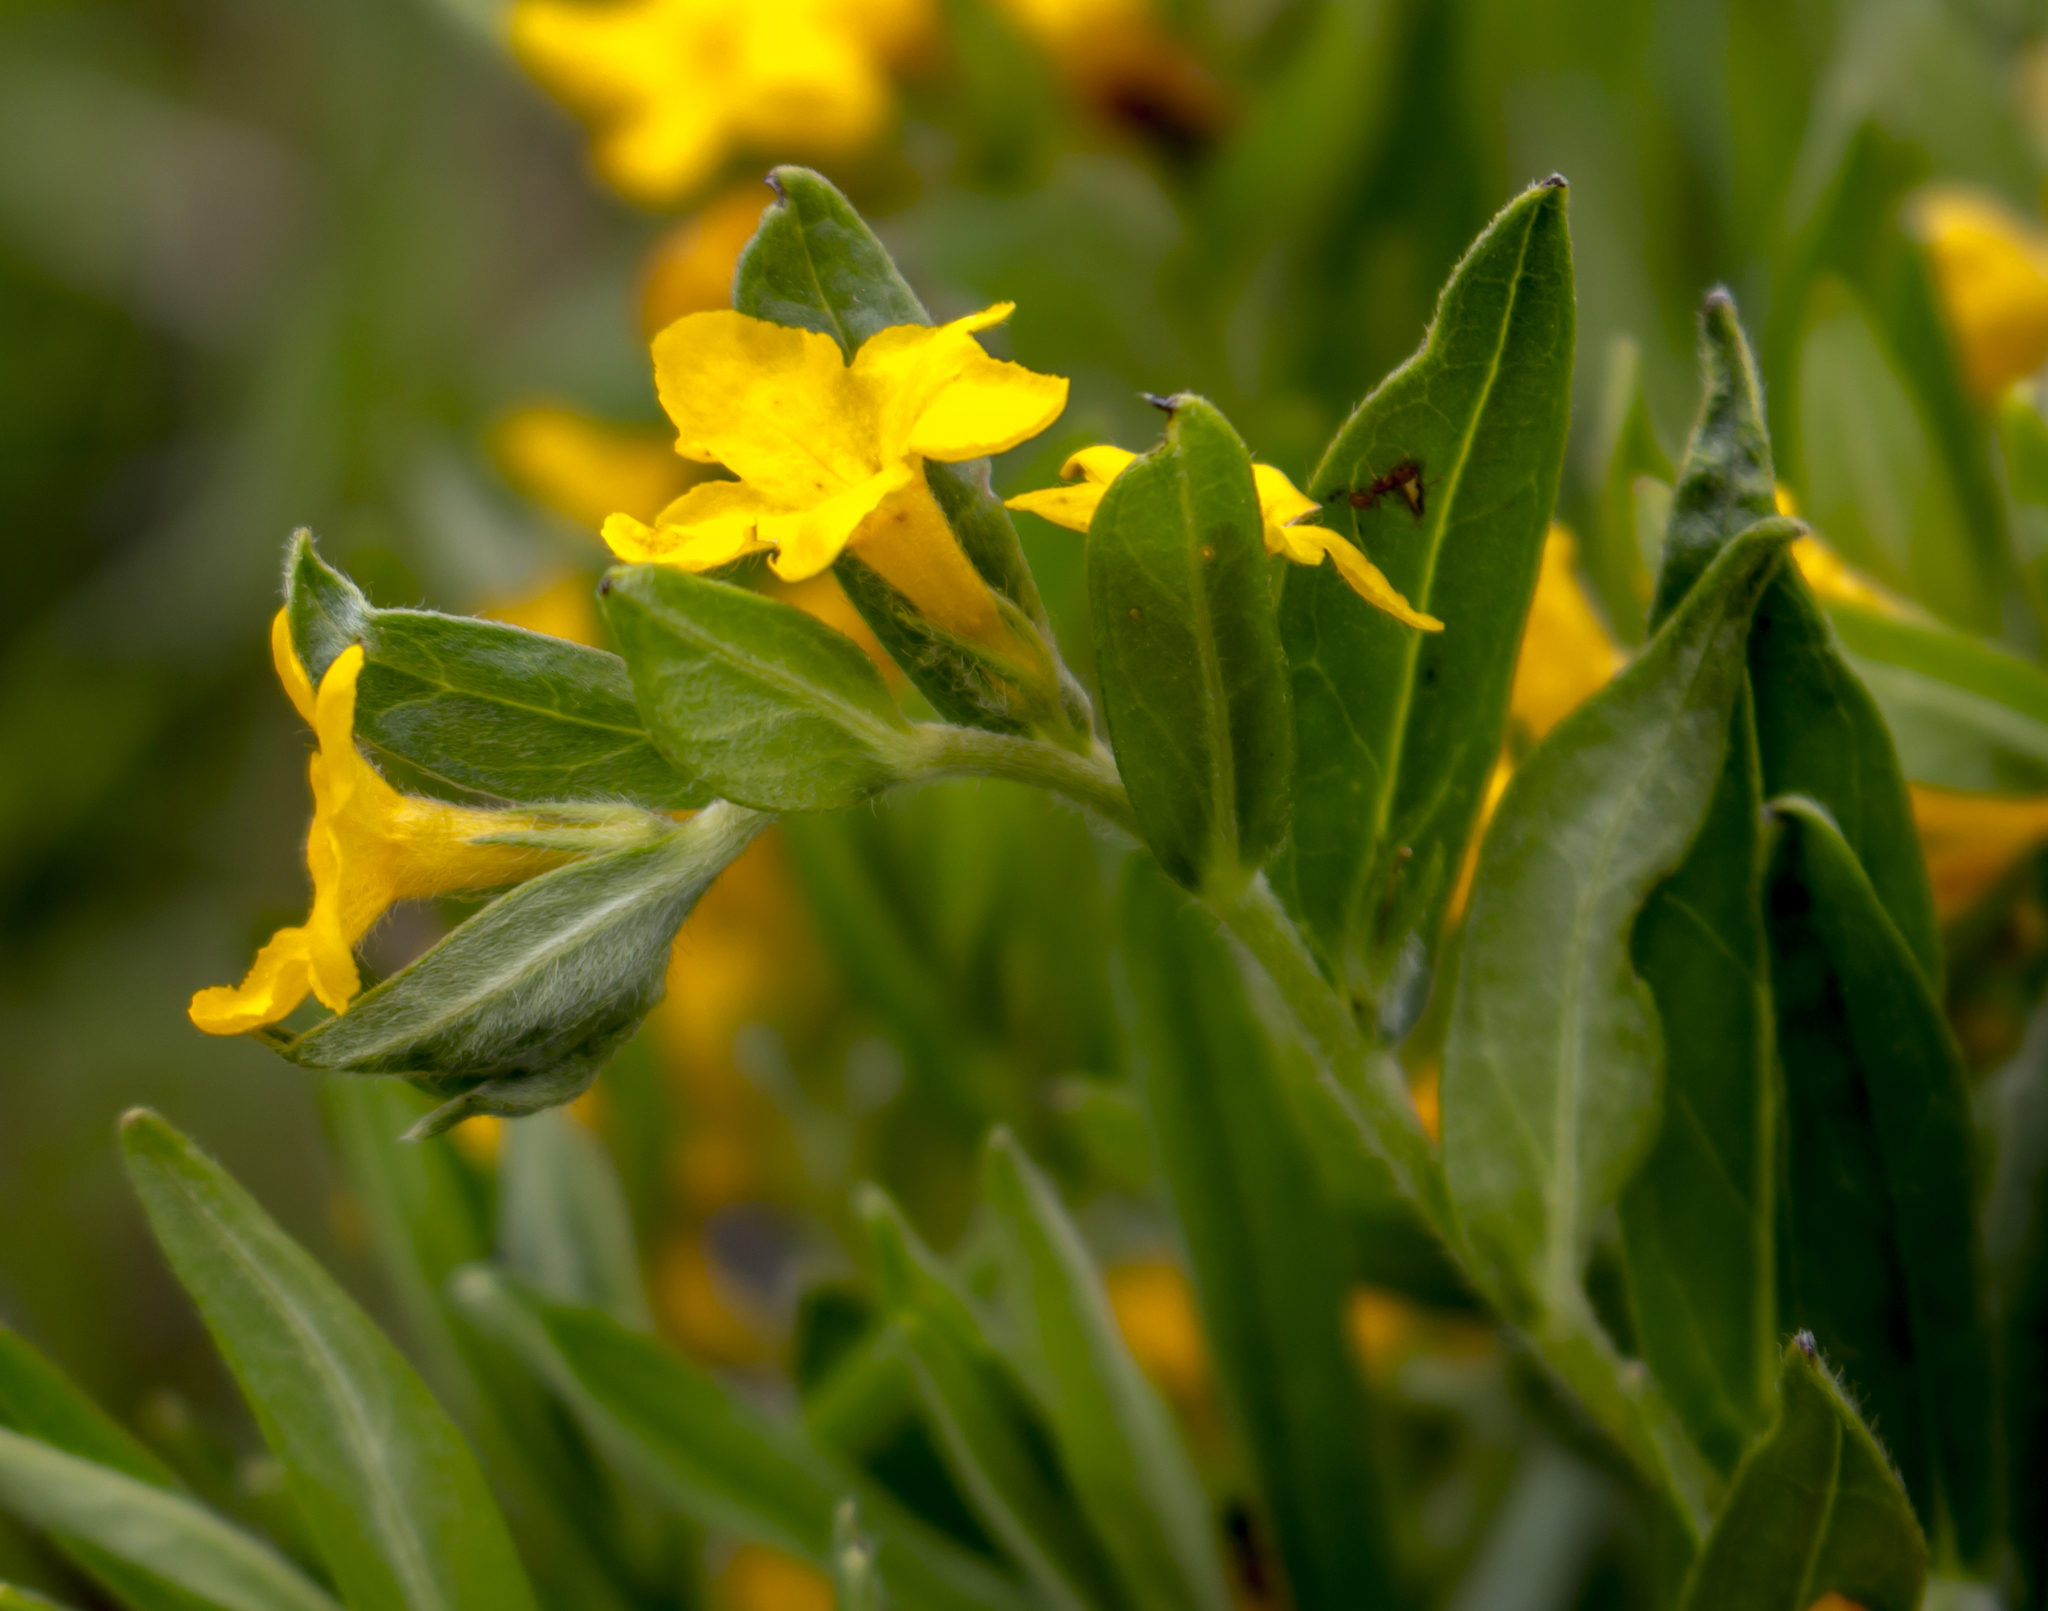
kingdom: Plantae
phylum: Tracheophyta
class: Magnoliopsida
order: Boraginales
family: Boraginaceae
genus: Lithospermum
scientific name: Lithospermum canescens
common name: Hoary puccoon
